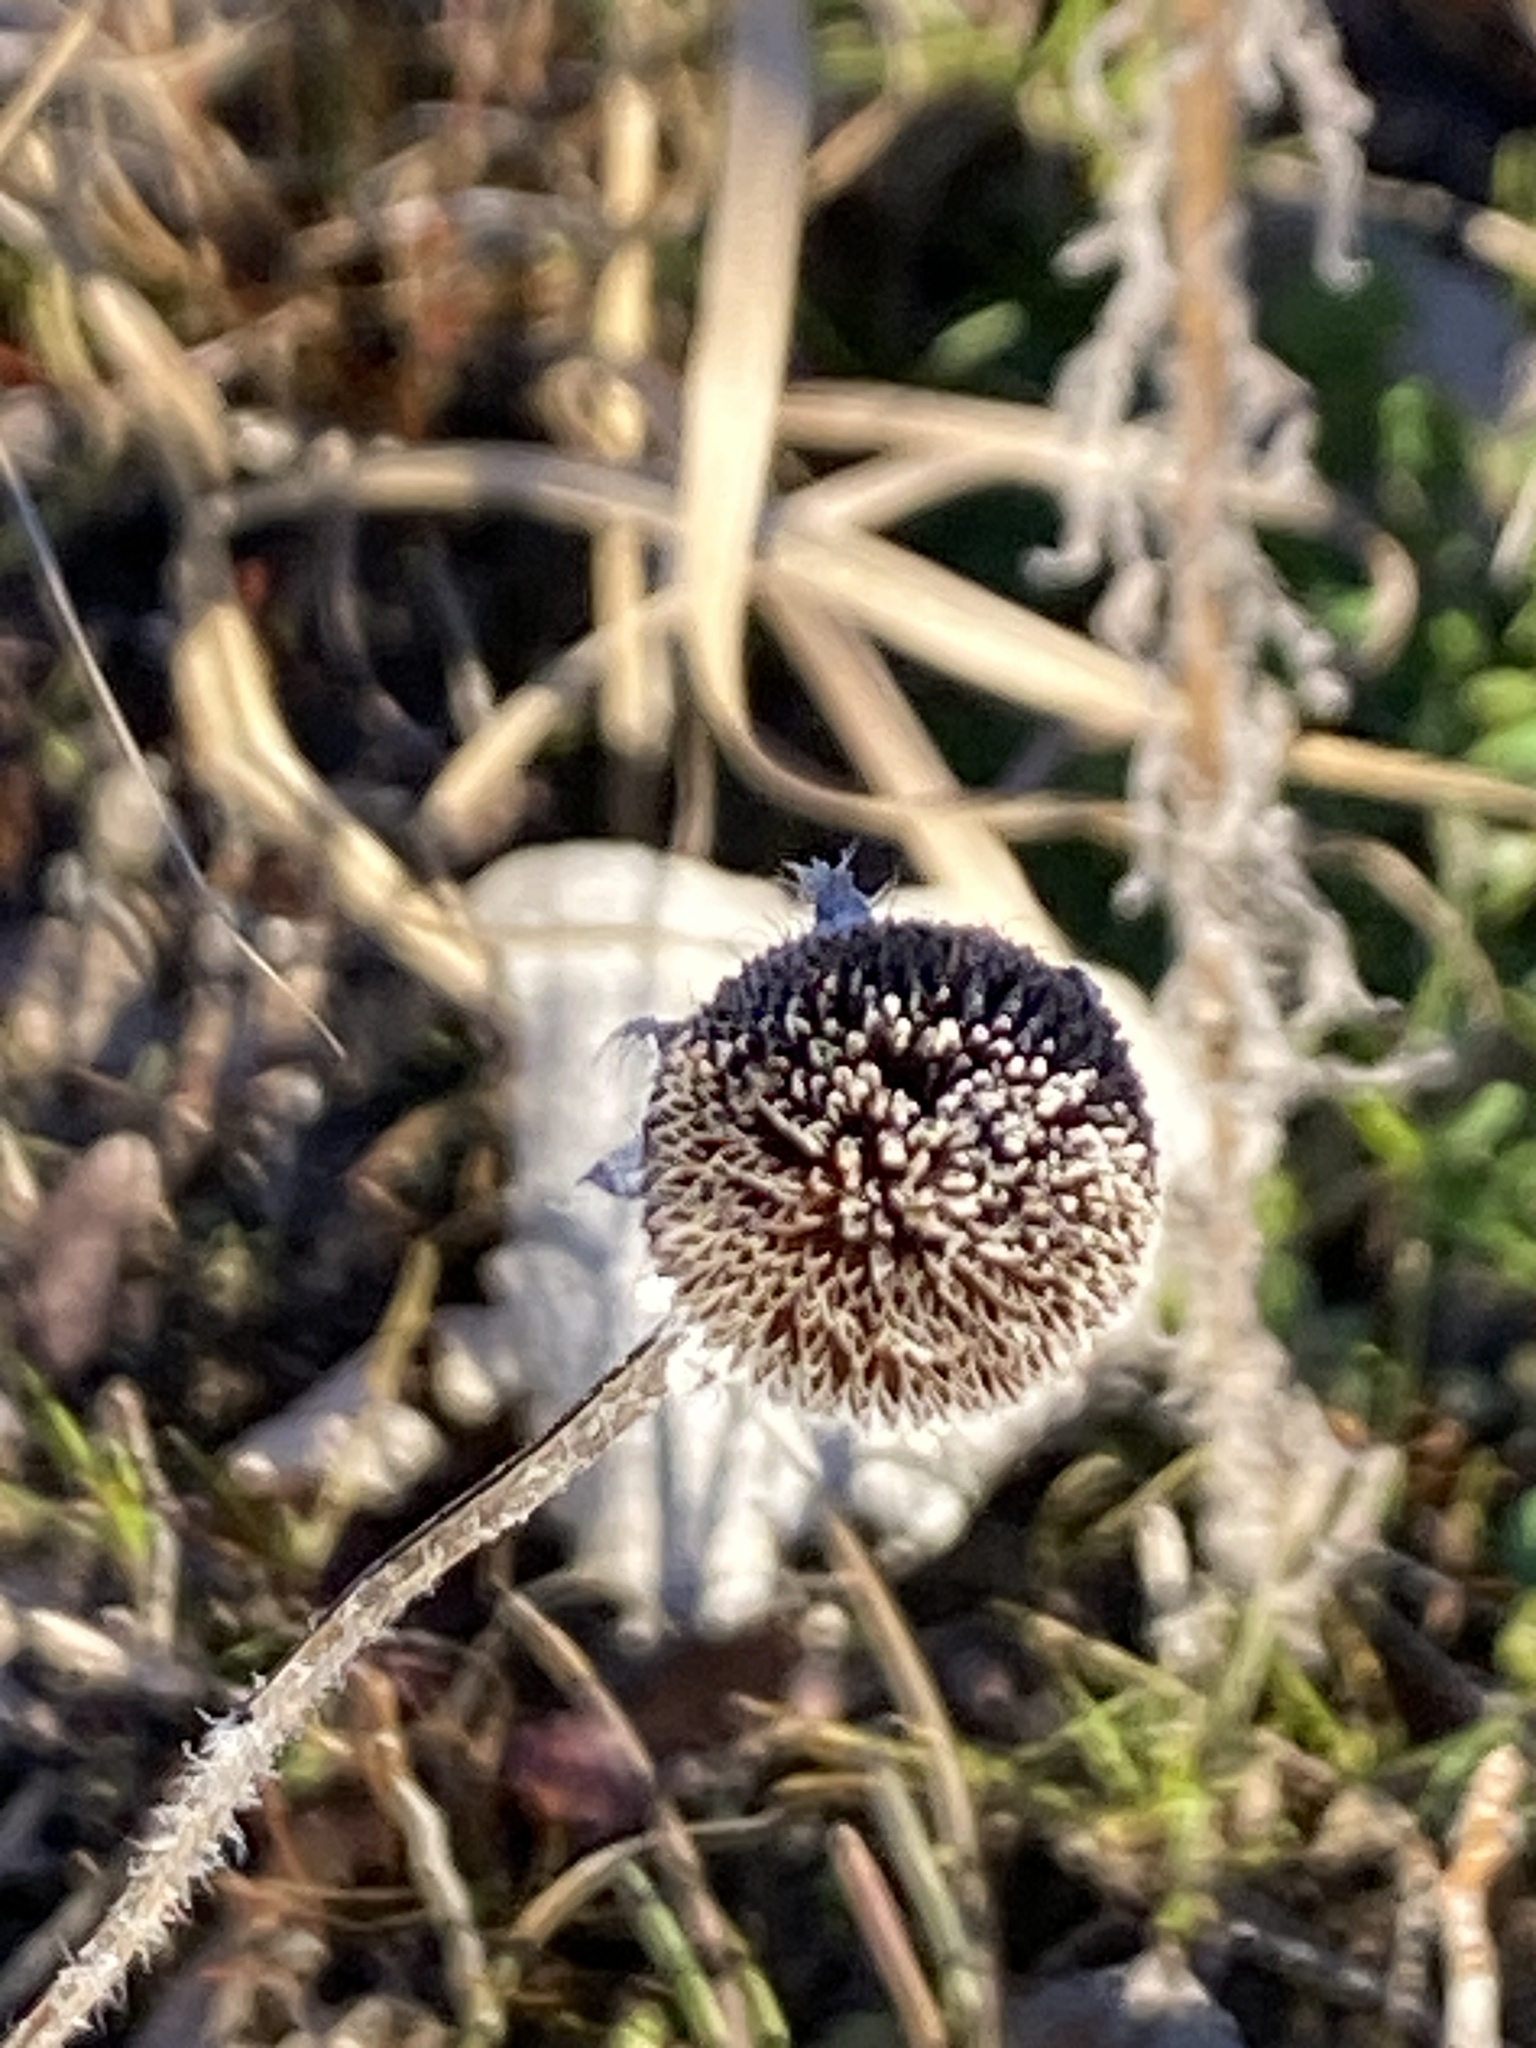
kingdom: Plantae
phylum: Tracheophyta
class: Magnoliopsida
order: Asterales
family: Asteraceae
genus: Rudbeckia
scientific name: Rudbeckia hirta
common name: Black-eyed-susan
